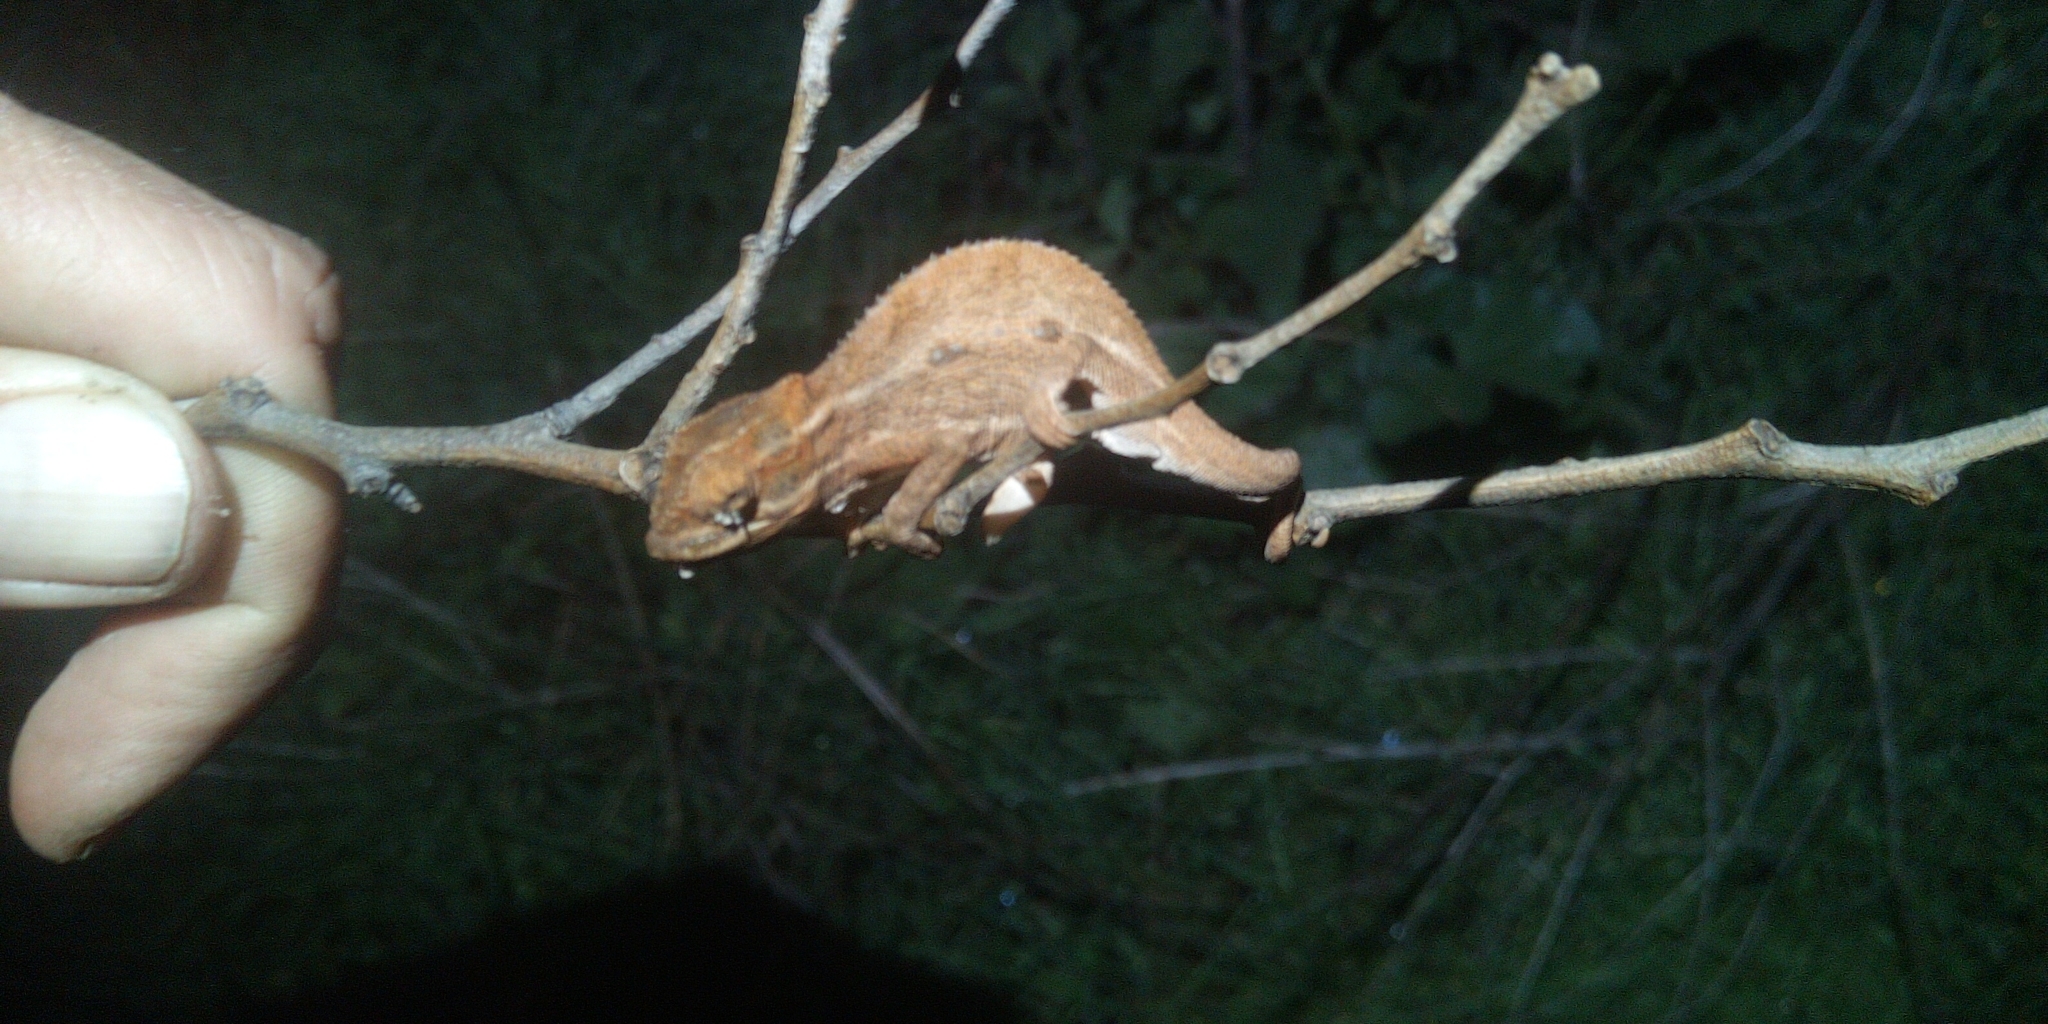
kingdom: Animalia
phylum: Chordata
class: Squamata
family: Chamaeleonidae
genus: Bradypodion
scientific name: Bradypodion pumilum
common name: Cape dwarf chameleon
